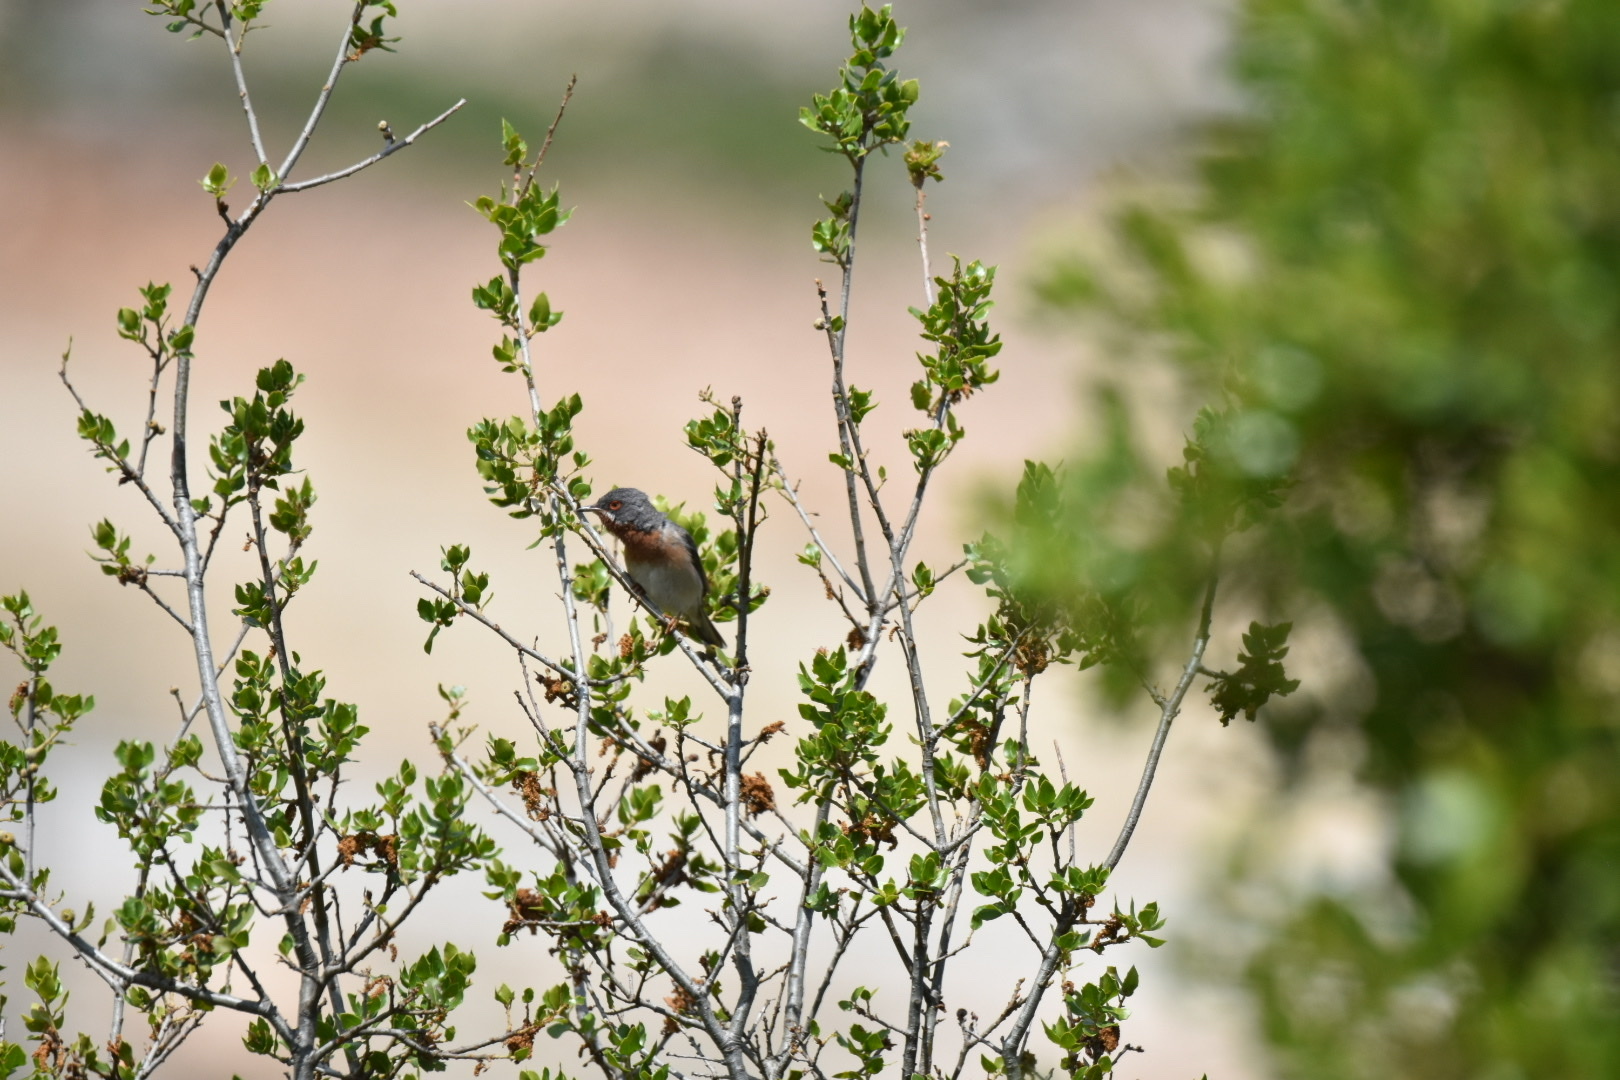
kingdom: Animalia
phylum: Chordata
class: Aves
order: Passeriformes
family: Sylviidae
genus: Curruca
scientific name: Curruca cantillans
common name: Subalpine warbler
